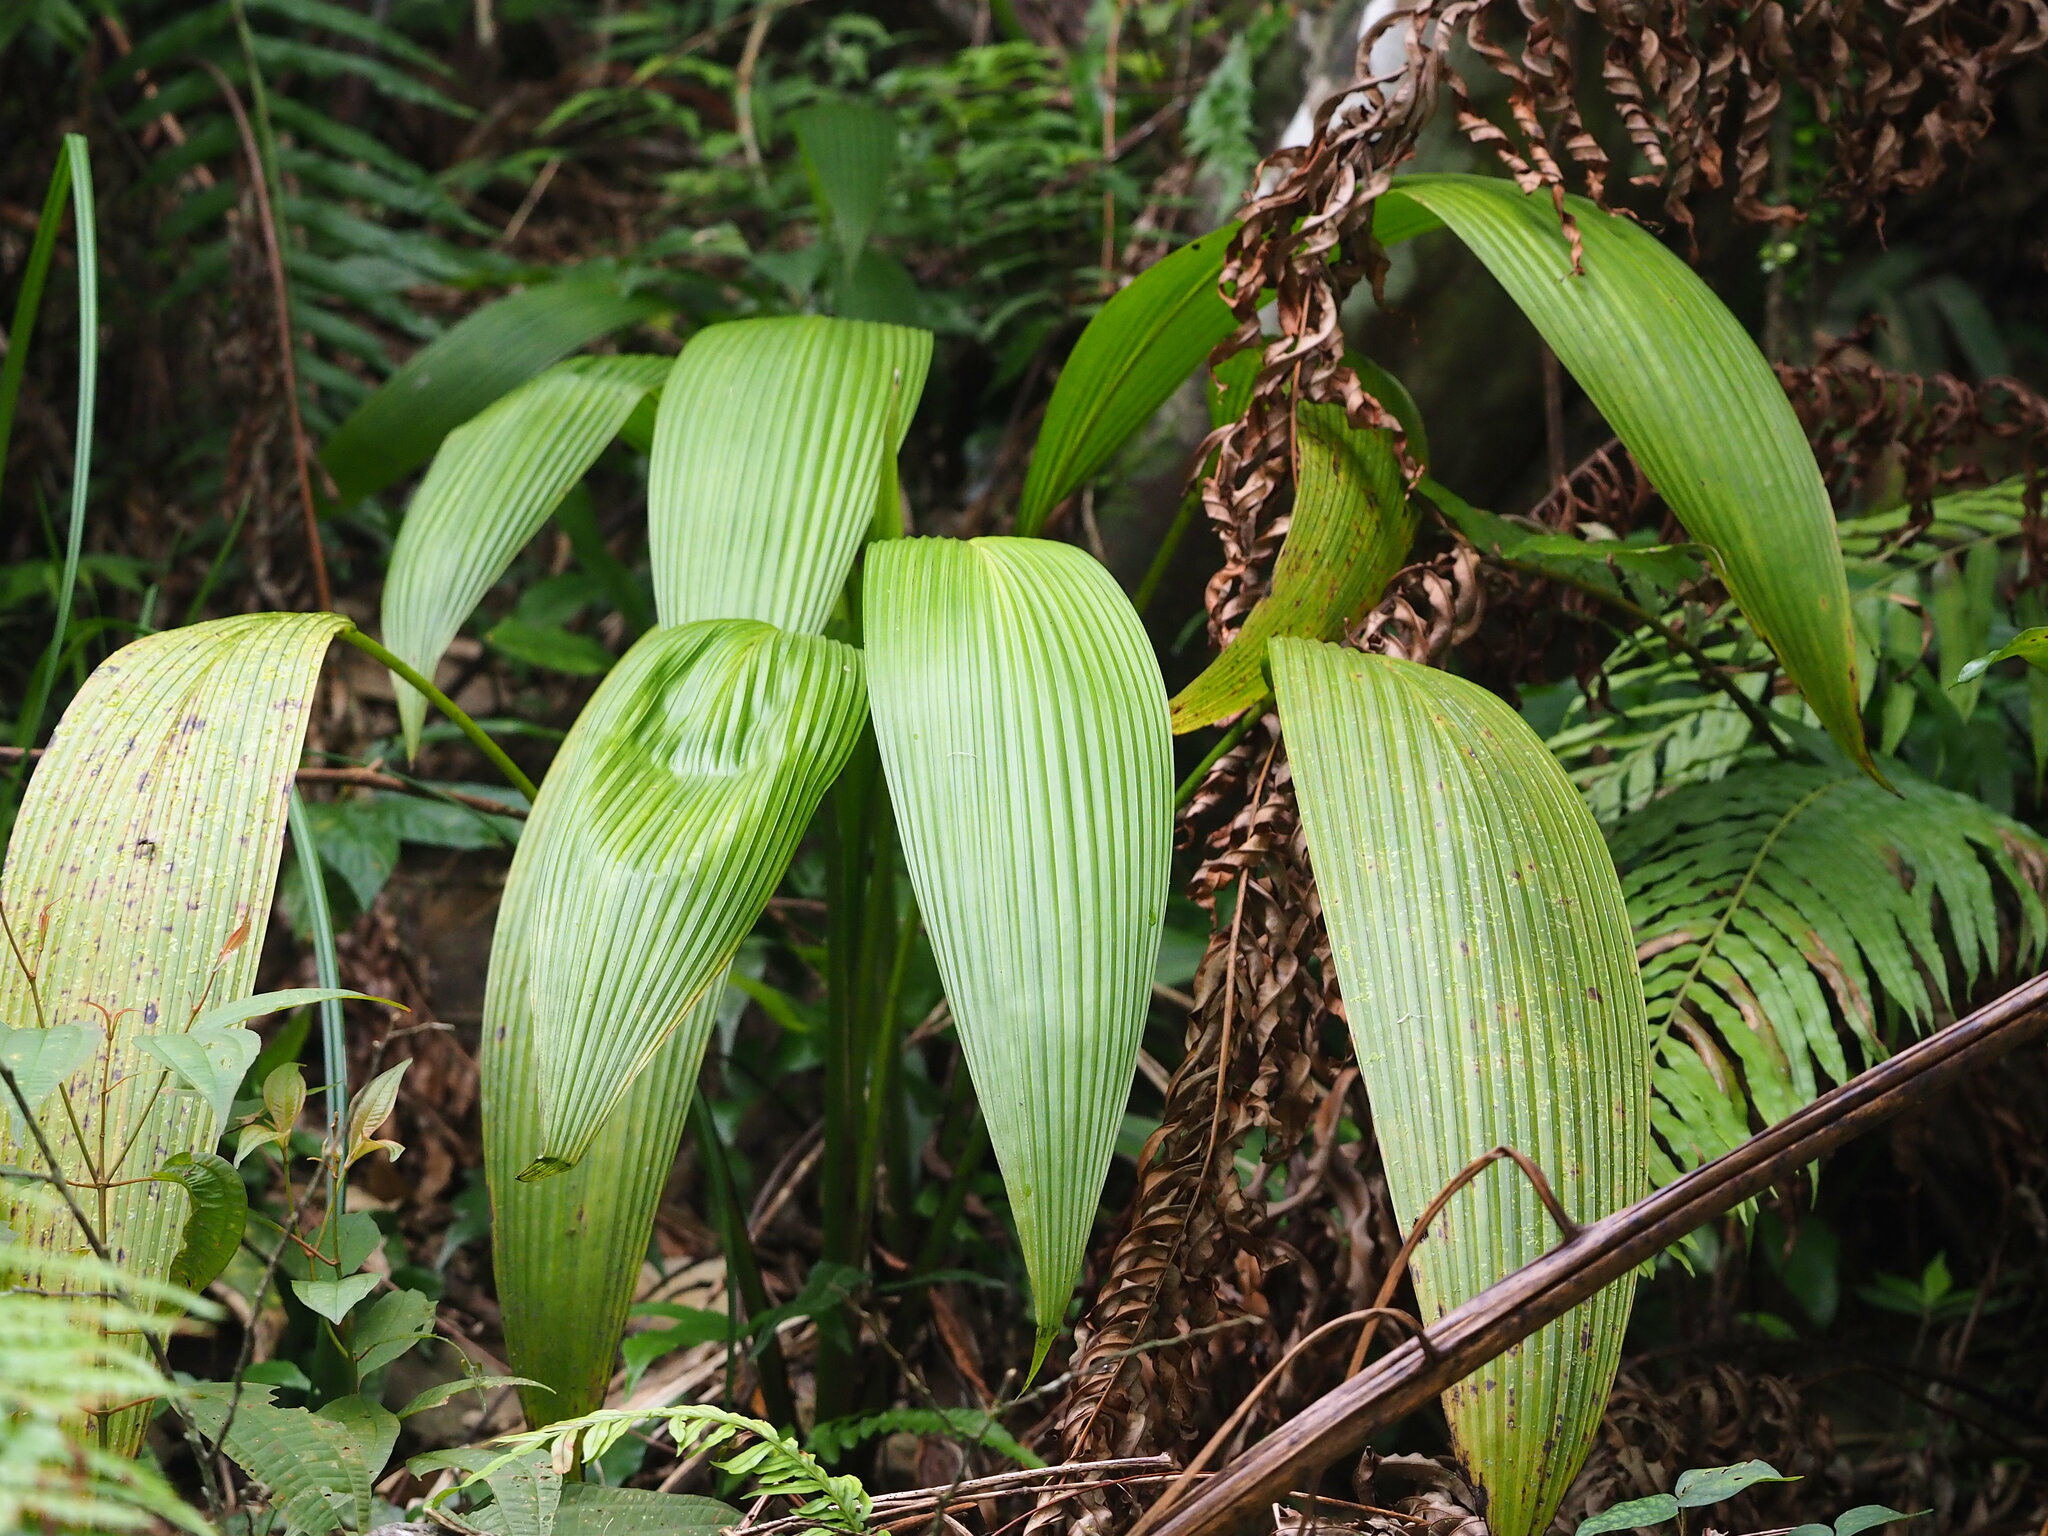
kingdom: Plantae
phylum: Tracheophyta
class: Liliopsida
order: Asparagales
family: Hypoxidaceae
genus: Curculigo
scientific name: Curculigo capitulata
